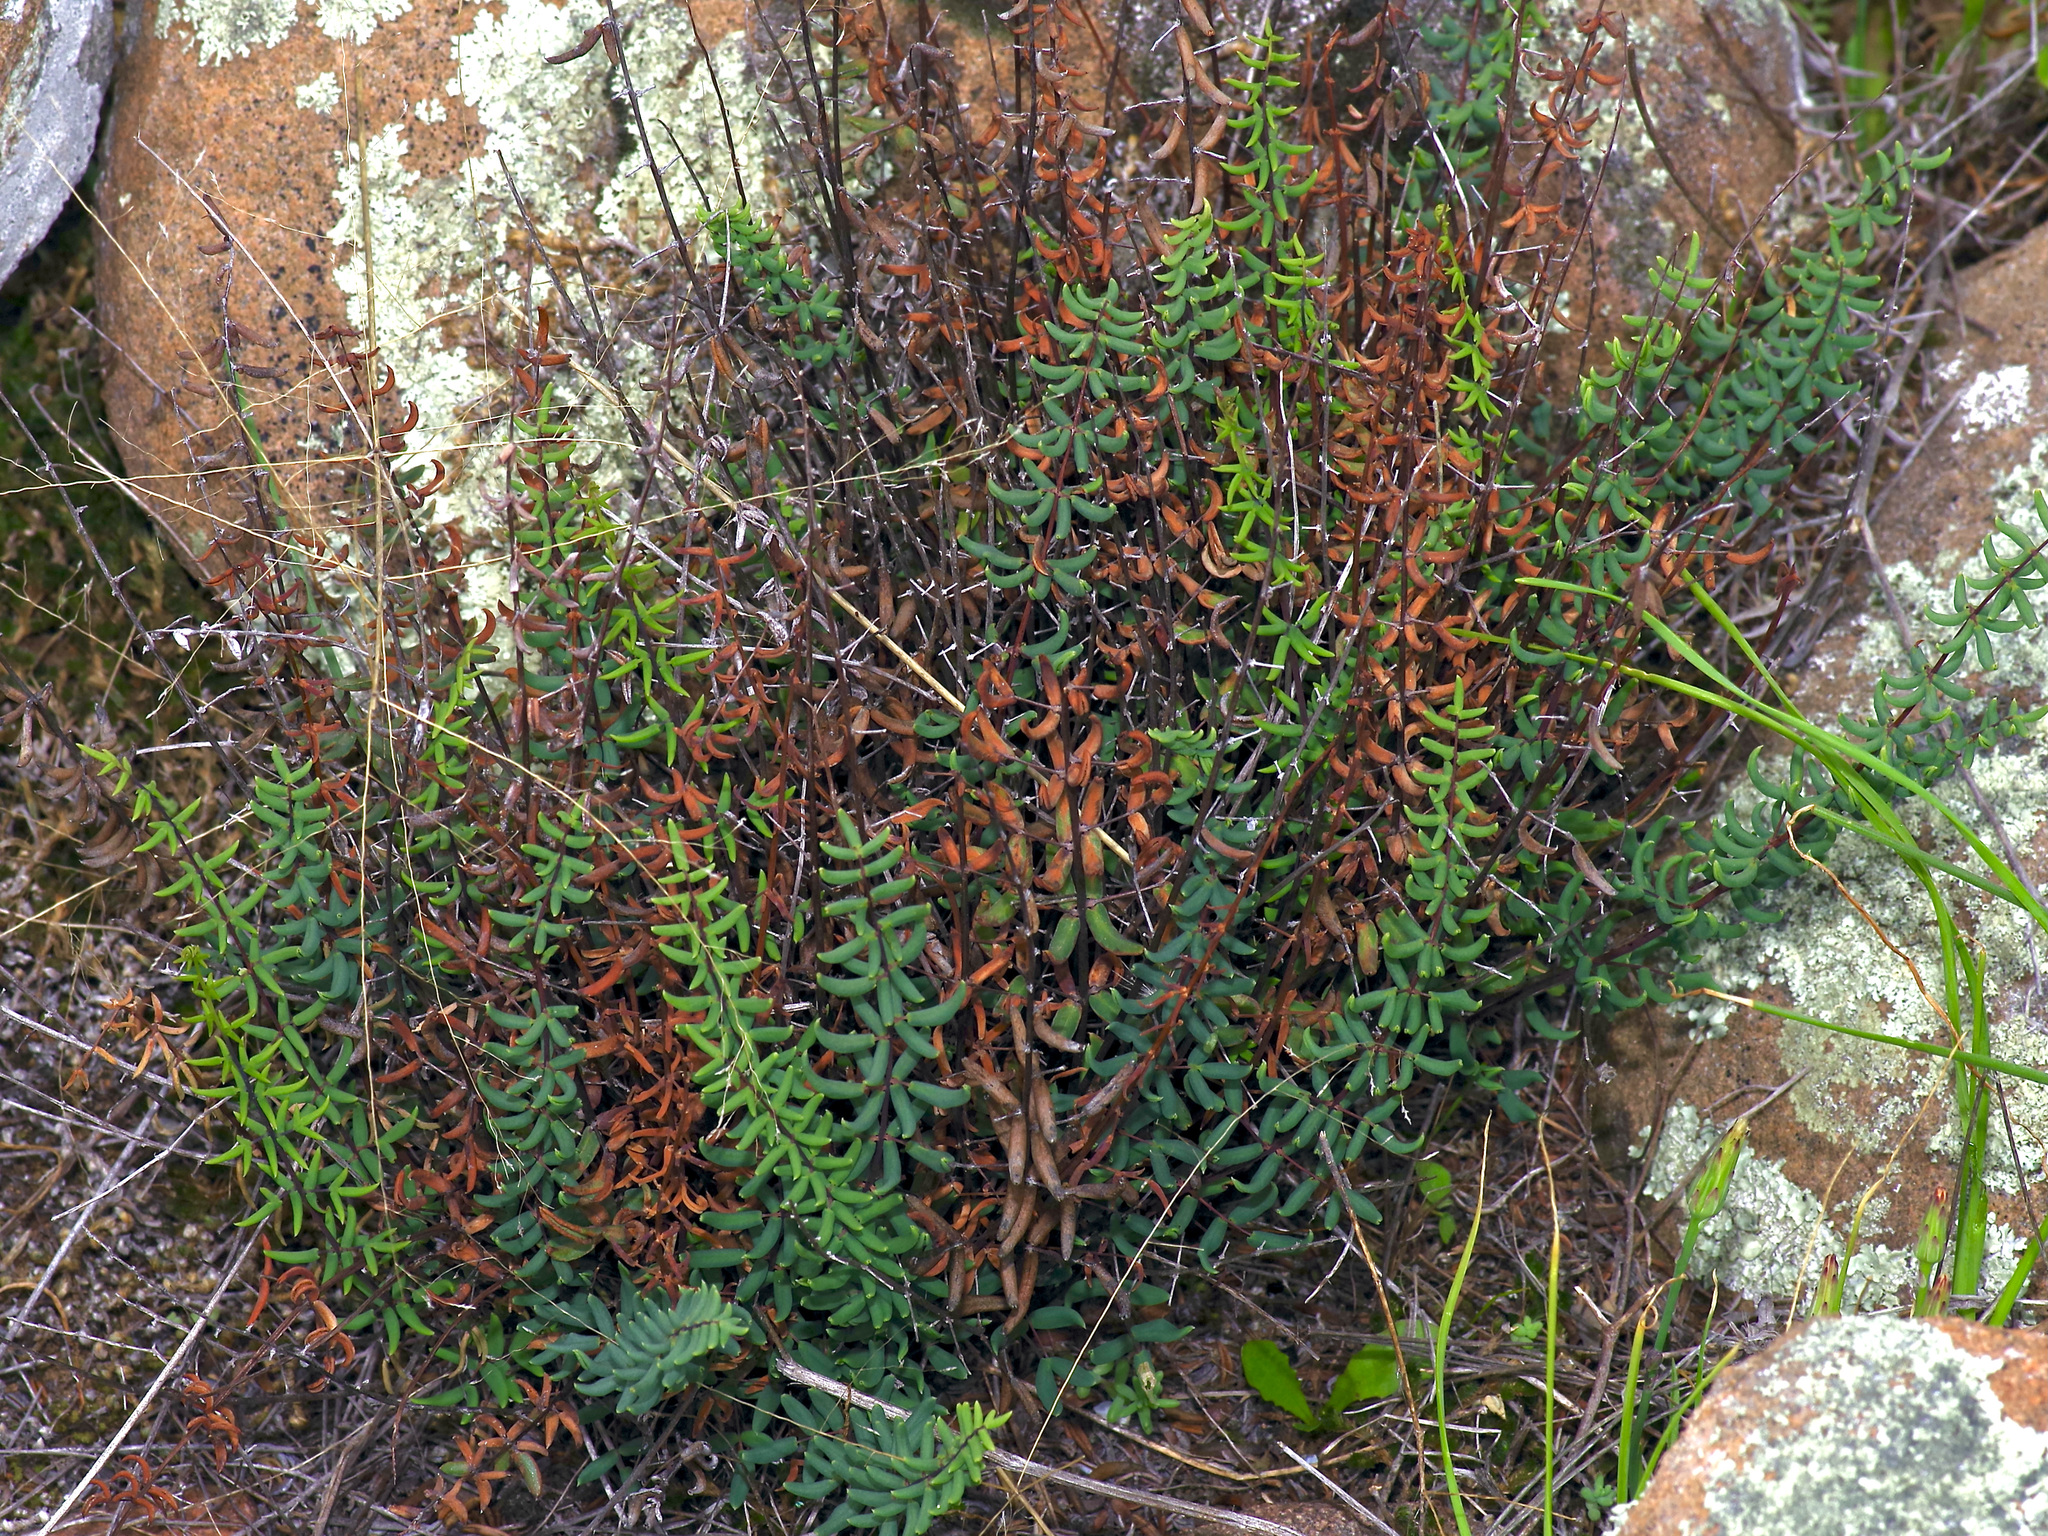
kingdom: Plantae
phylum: Tracheophyta
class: Polypodiopsida
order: Polypodiales
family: Pteridaceae
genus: Pellaea
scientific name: Pellaea wrightiana
